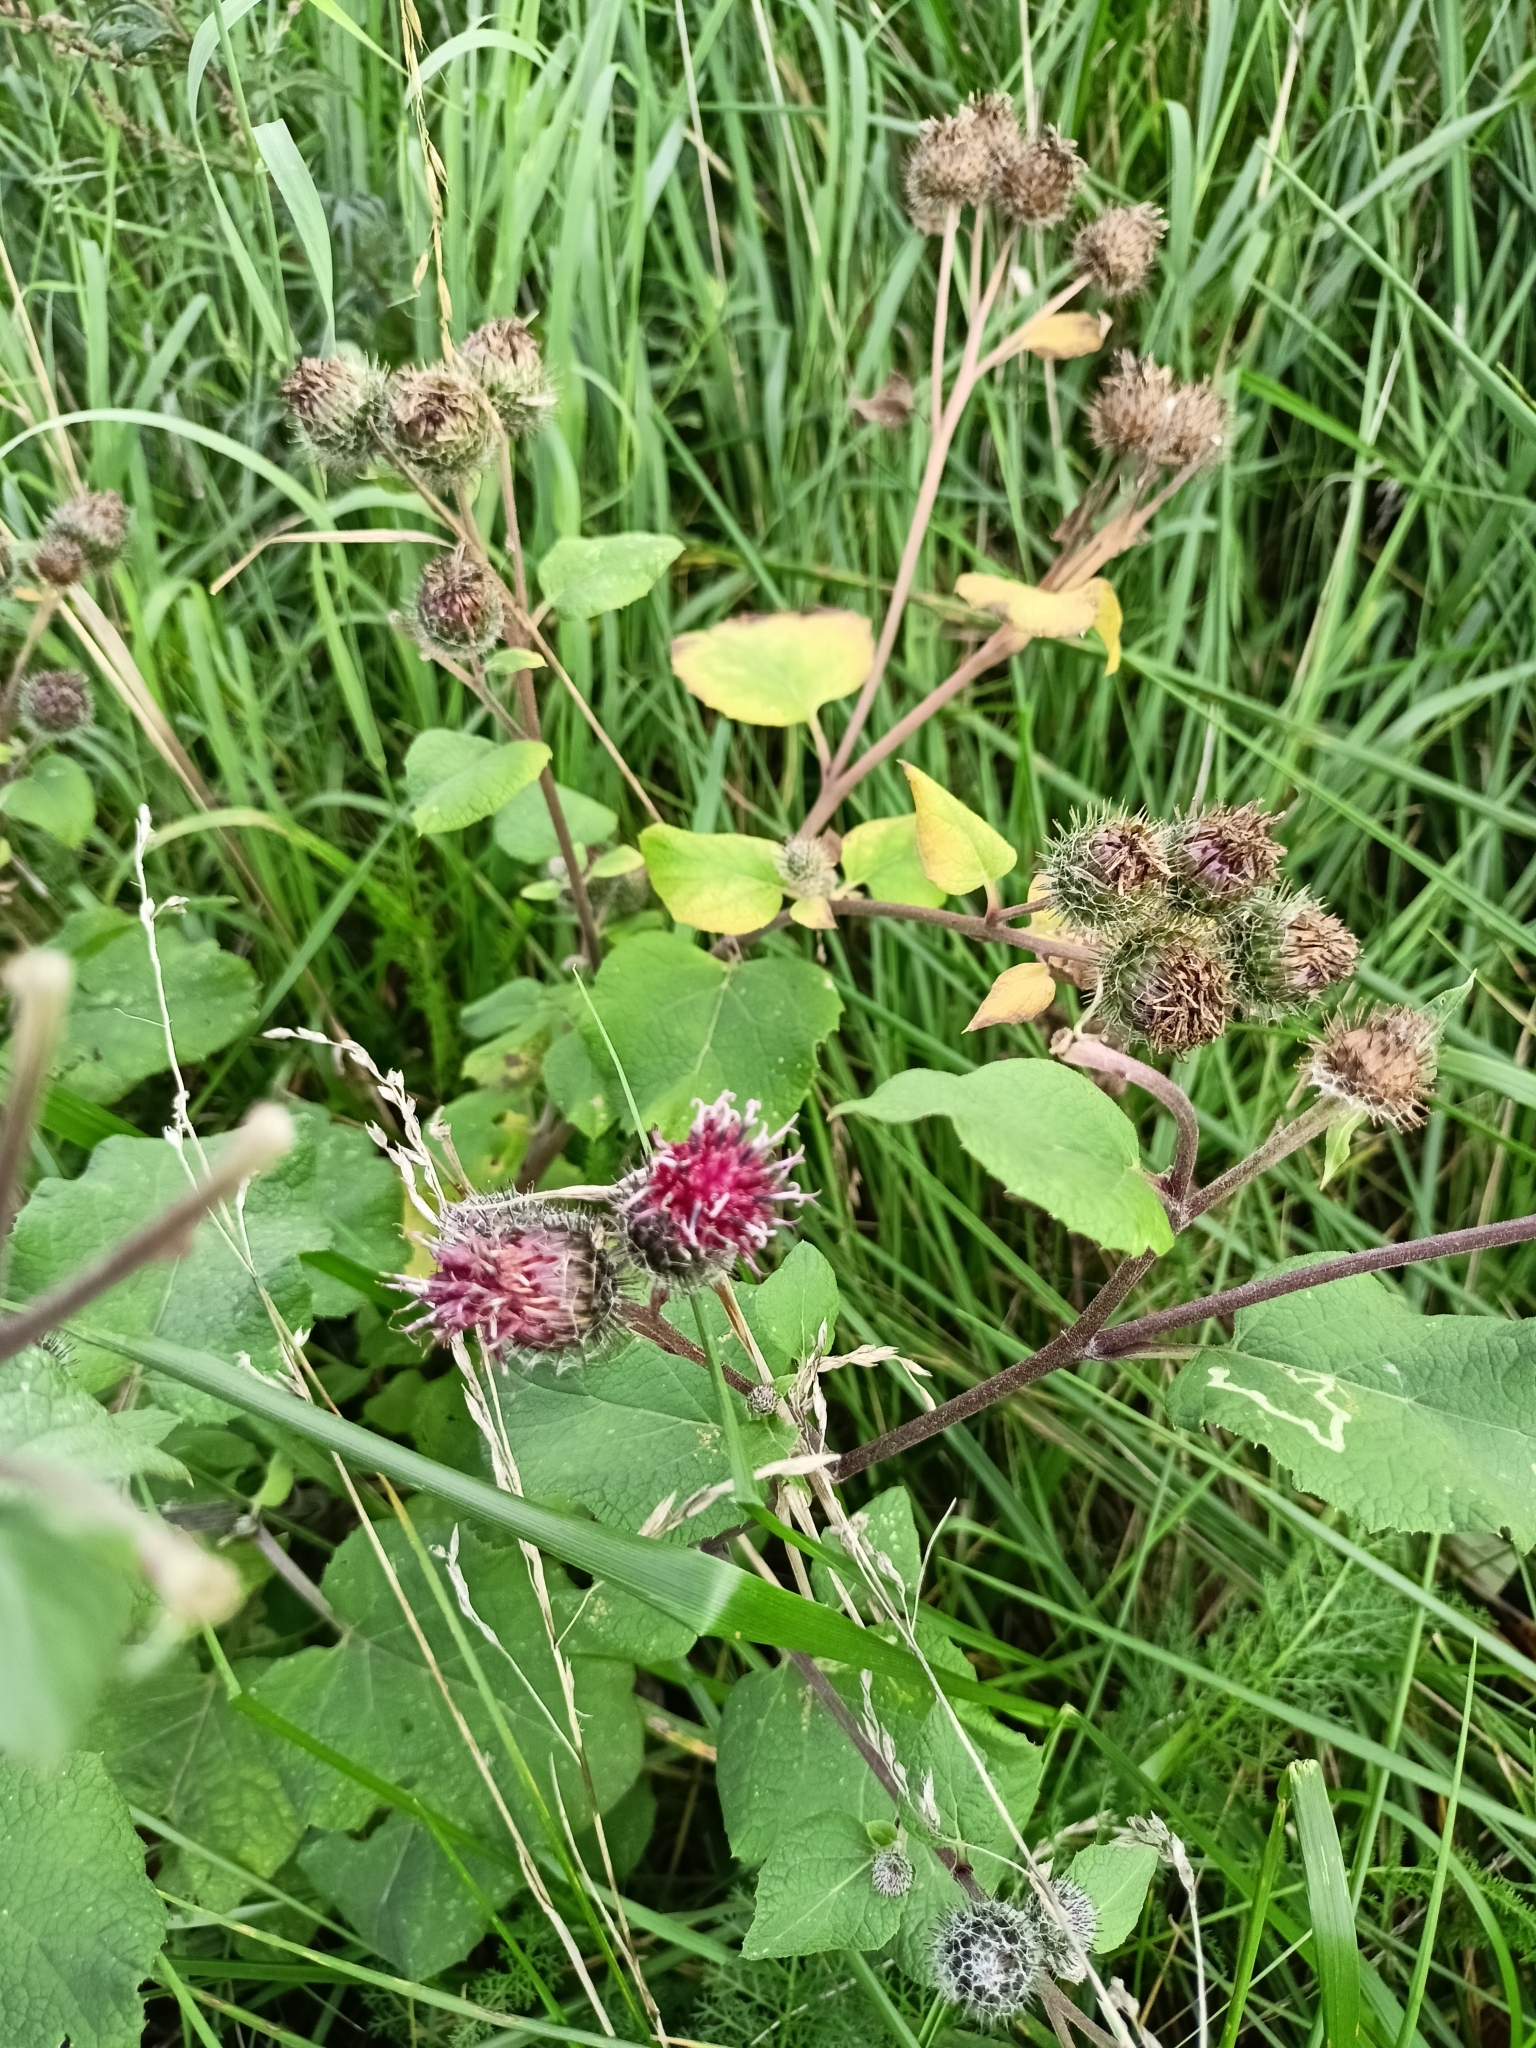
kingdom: Plantae
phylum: Tracheophyta
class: Magnoliopsida
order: Asterales
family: Asteraceae
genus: Arctium
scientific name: Arctium tomentosum
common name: Woolly burdock
